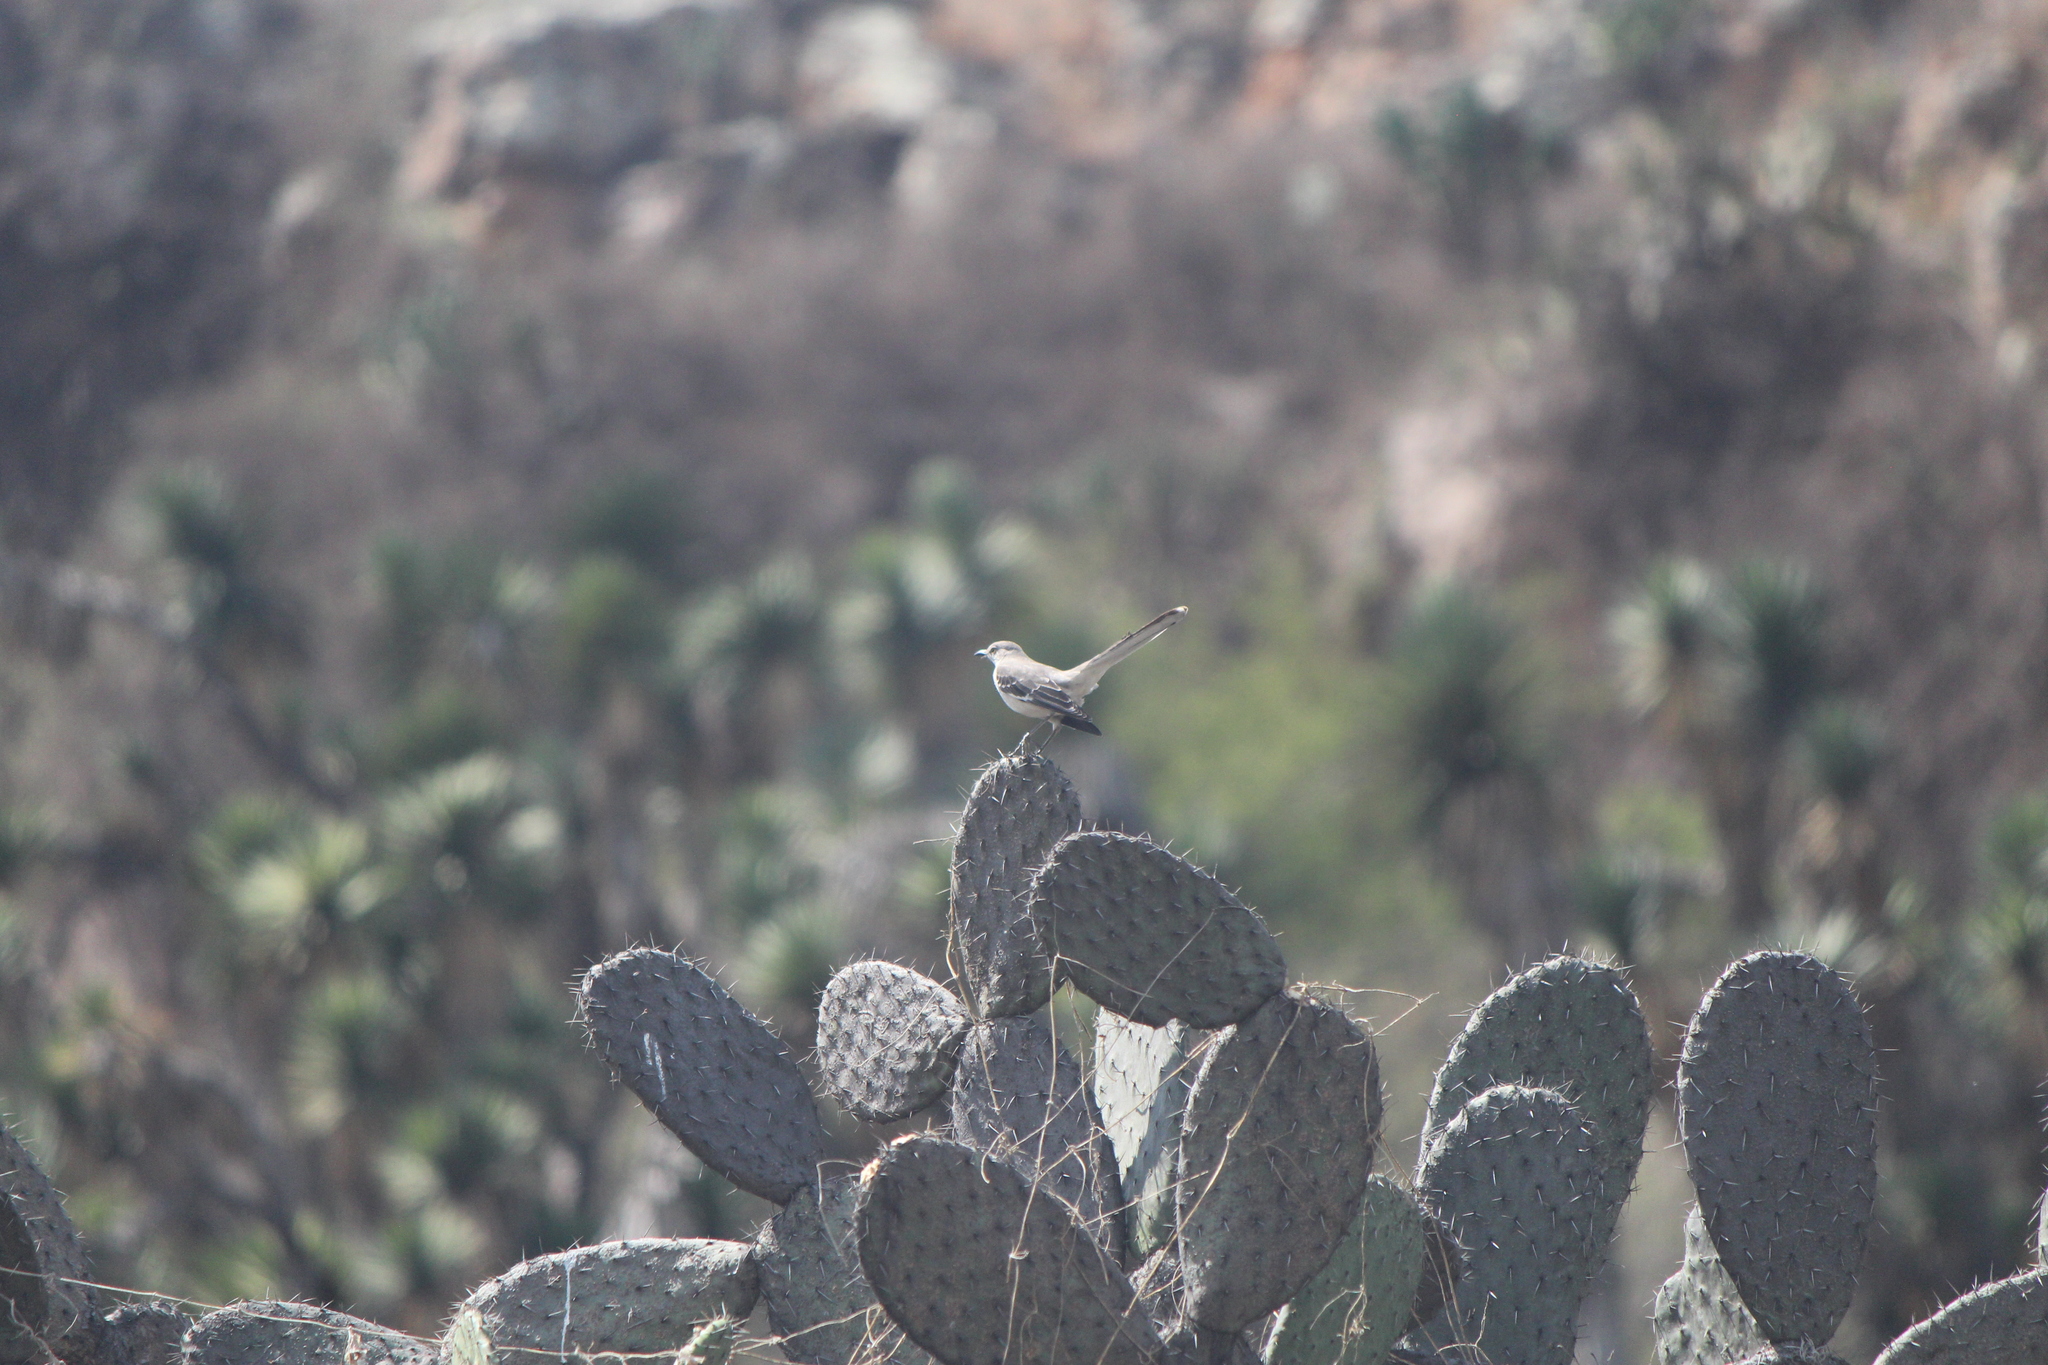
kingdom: Animalia
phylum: Chordata
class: Aves
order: Passeriformes
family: Mimidae
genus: Mimus
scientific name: Mimus polyglottos
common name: Northern mockingbird
